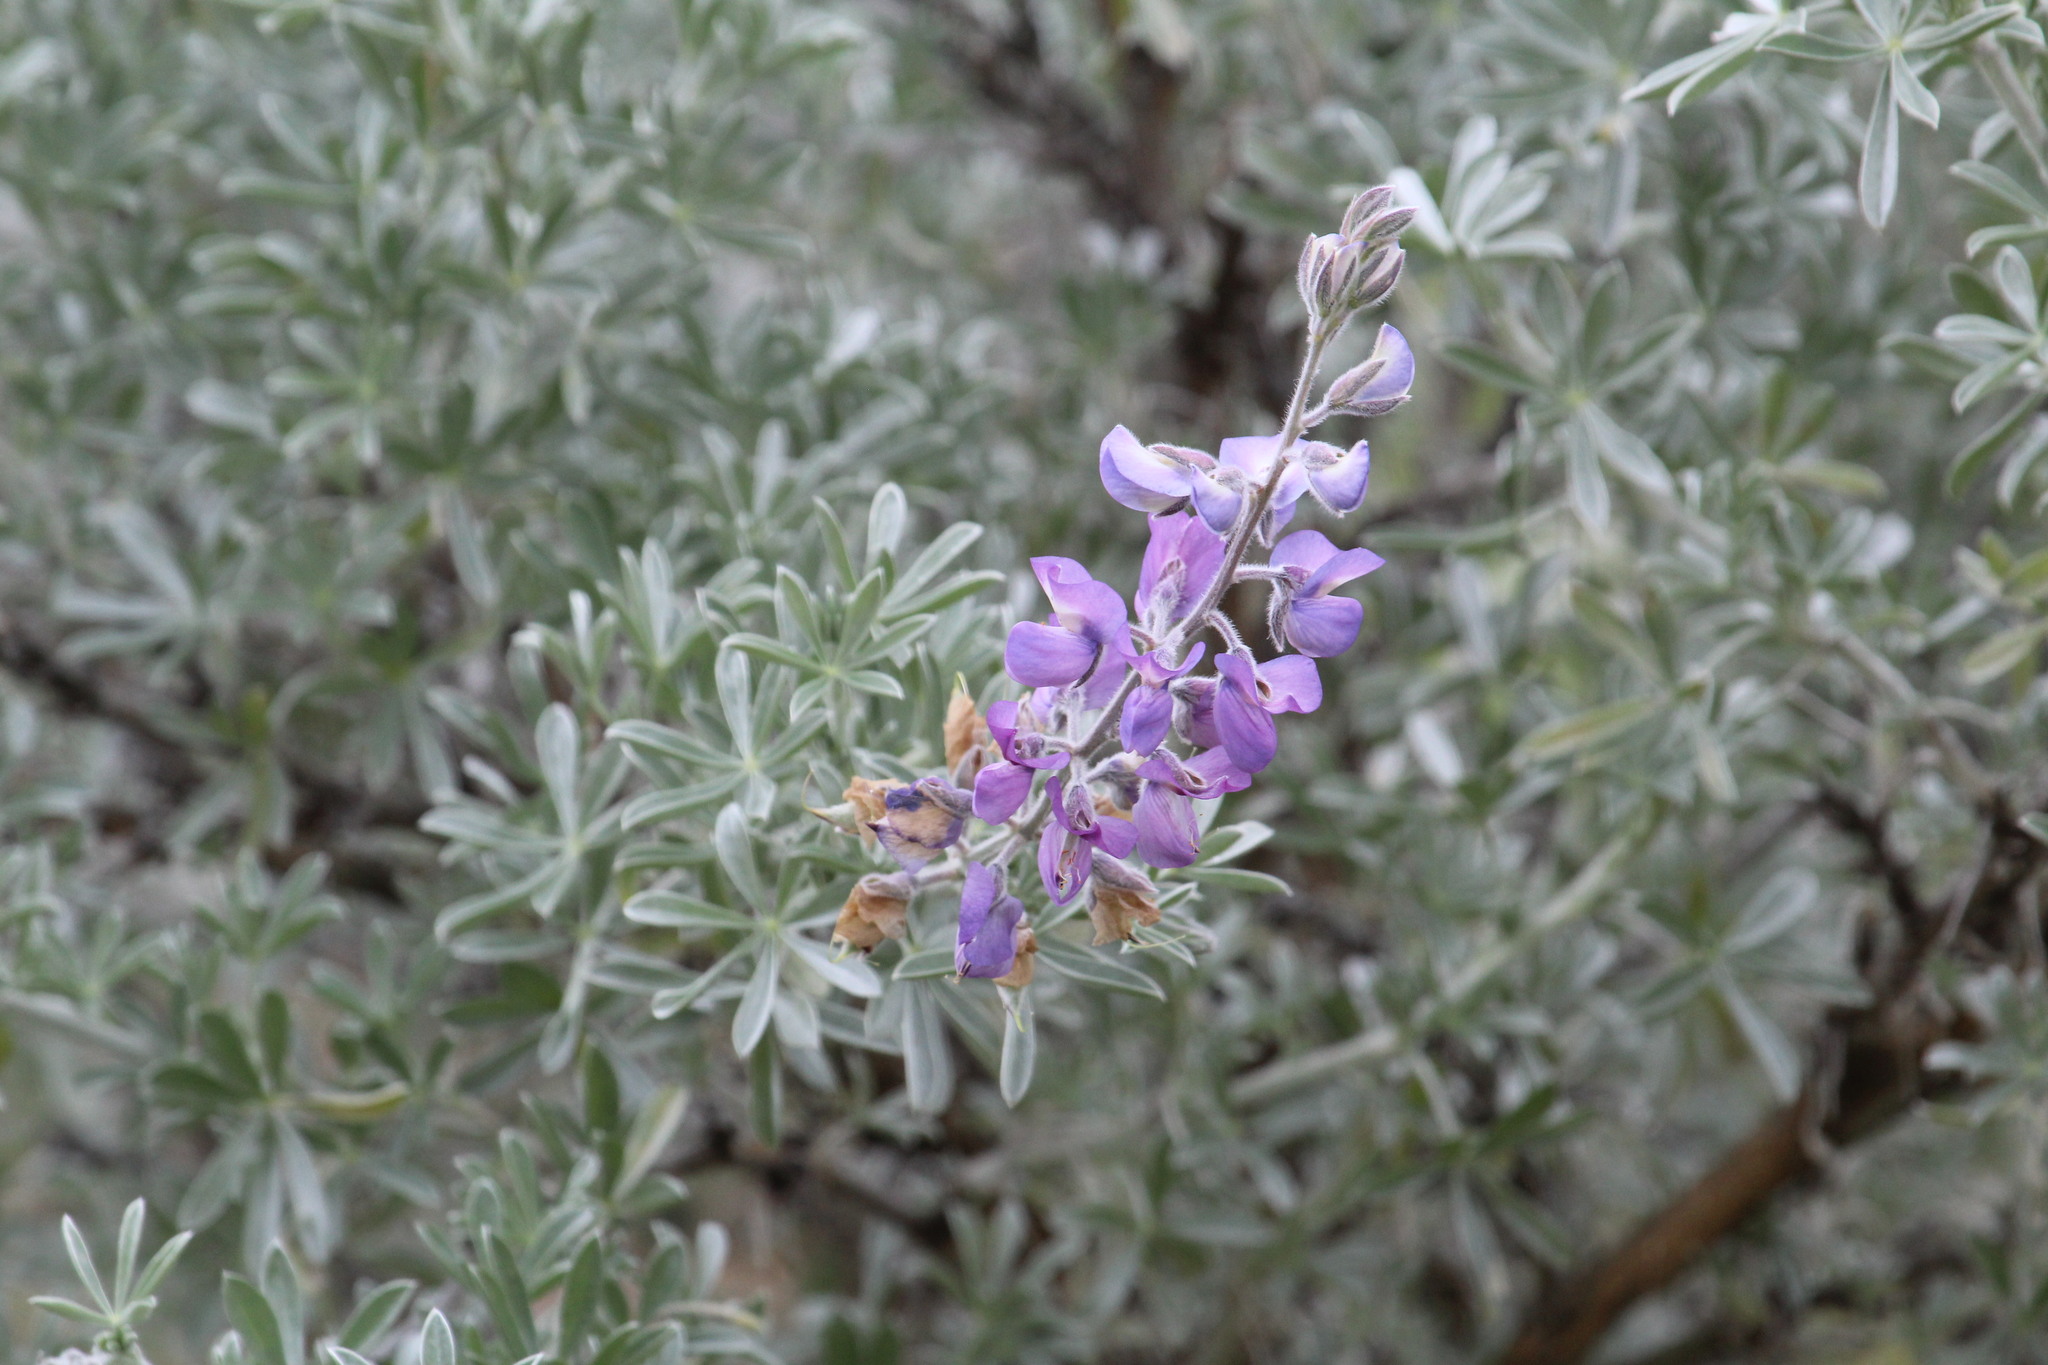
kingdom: Plantae
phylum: Tracheophyta
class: Magnoliopsida
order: Fabales
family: Fabaceae
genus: Lupinus
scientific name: Lupinus chamissonis
